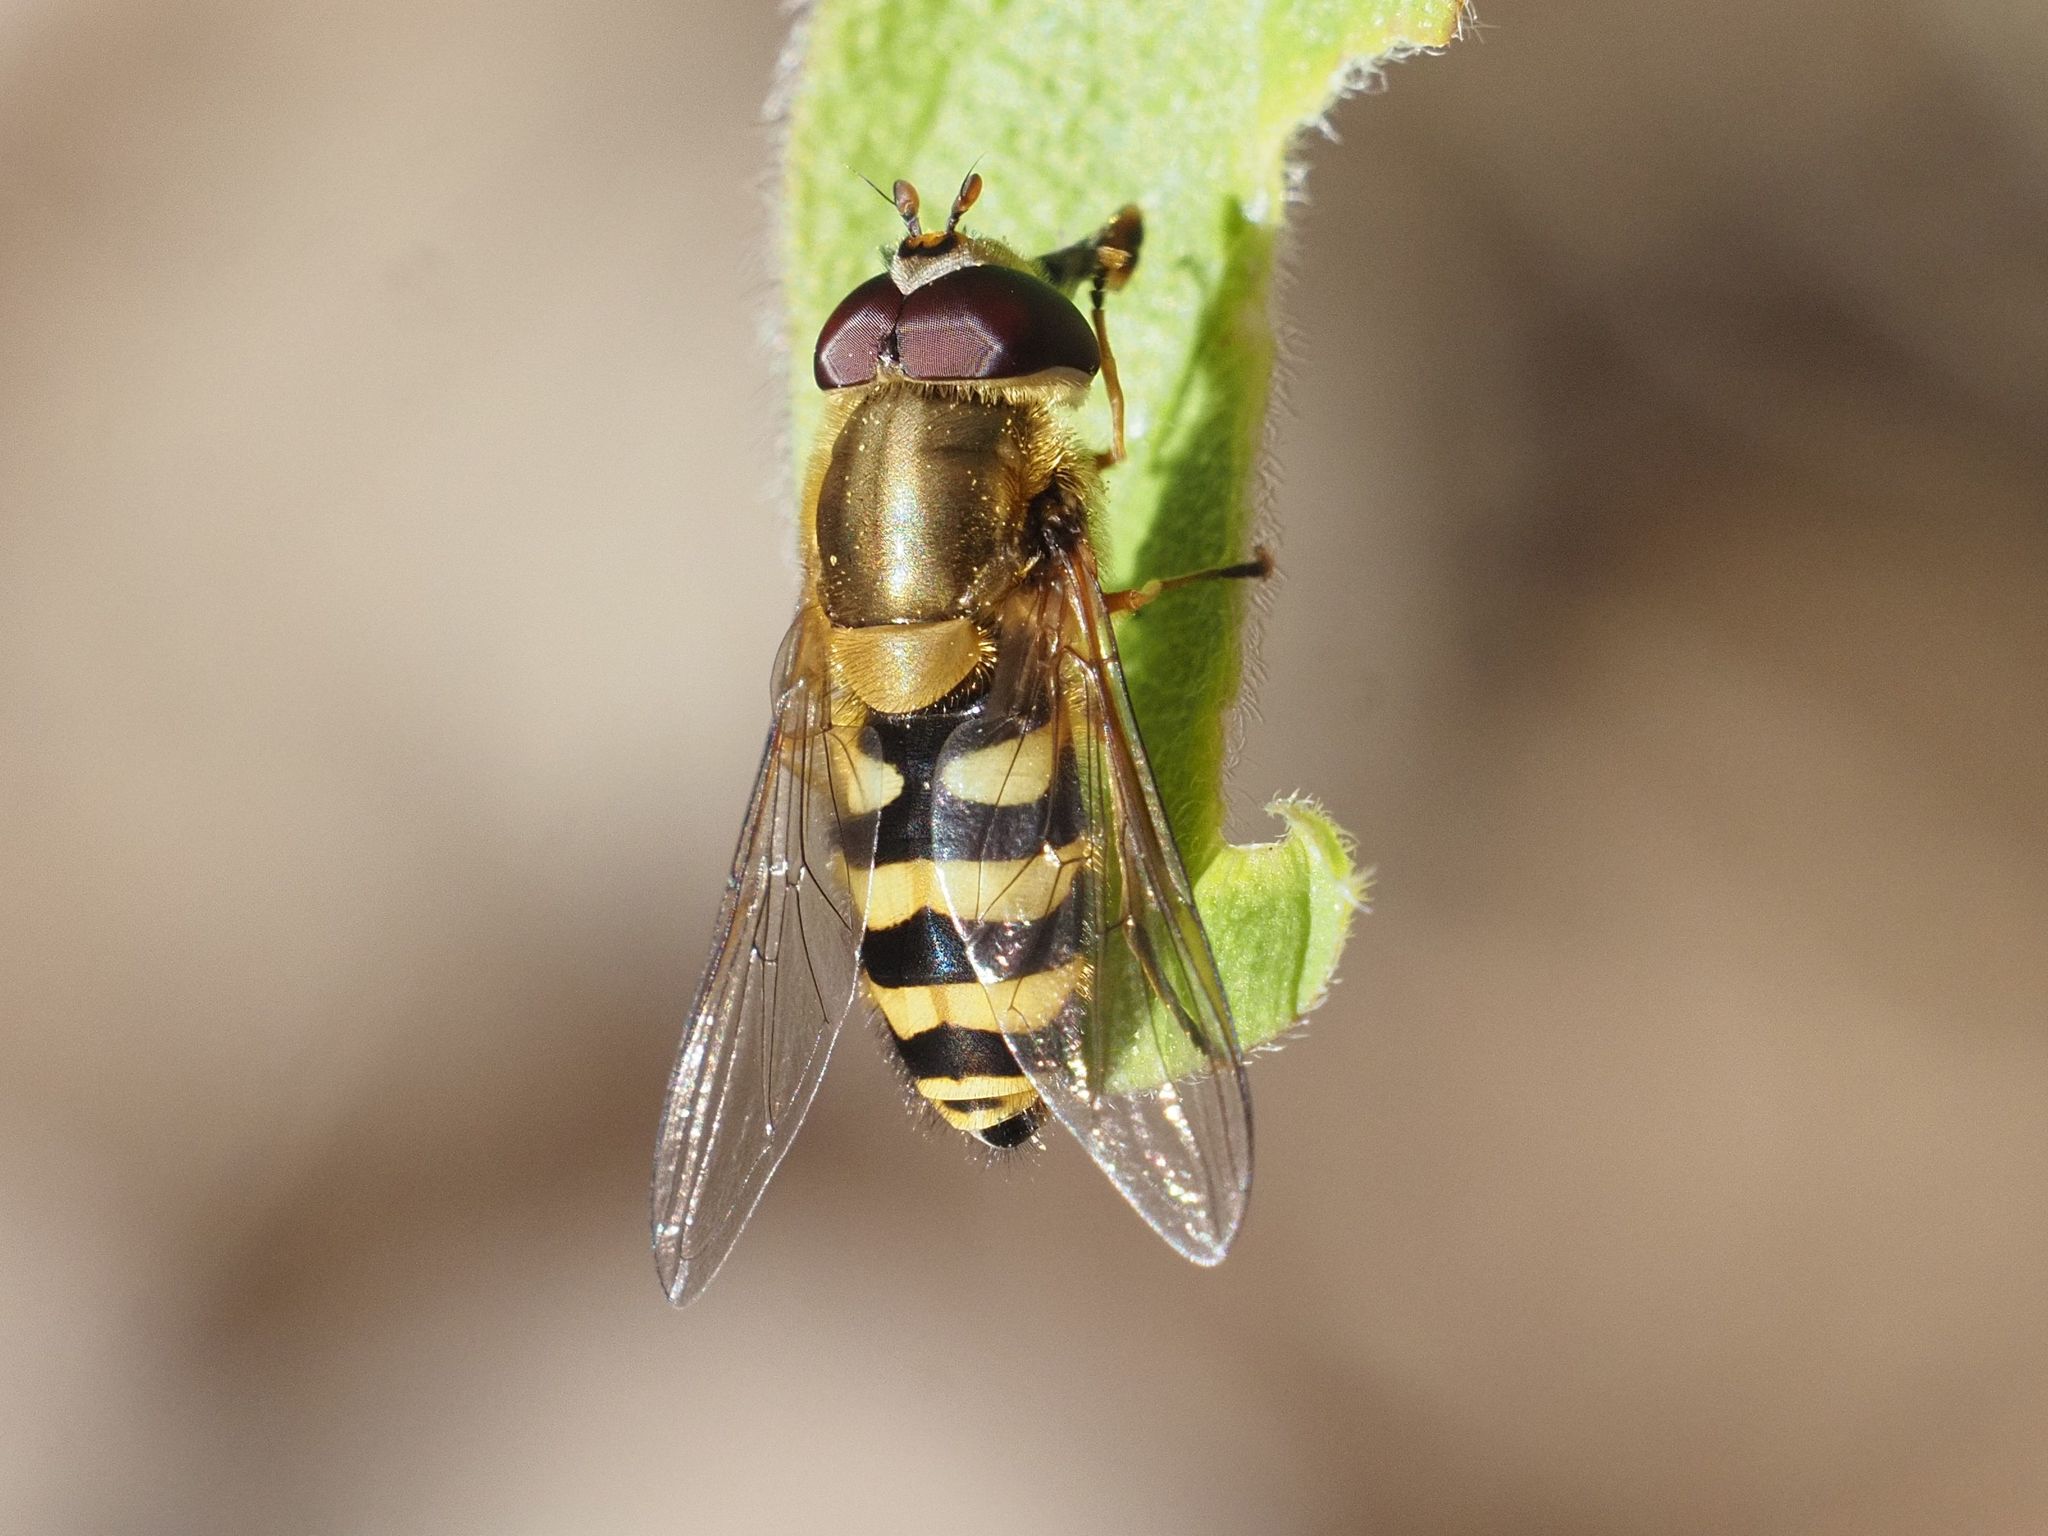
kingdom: Animalia
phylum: Arthropoda
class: Insecta
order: Diptera
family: Syrphidae
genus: Syrphus
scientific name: Syrphus
